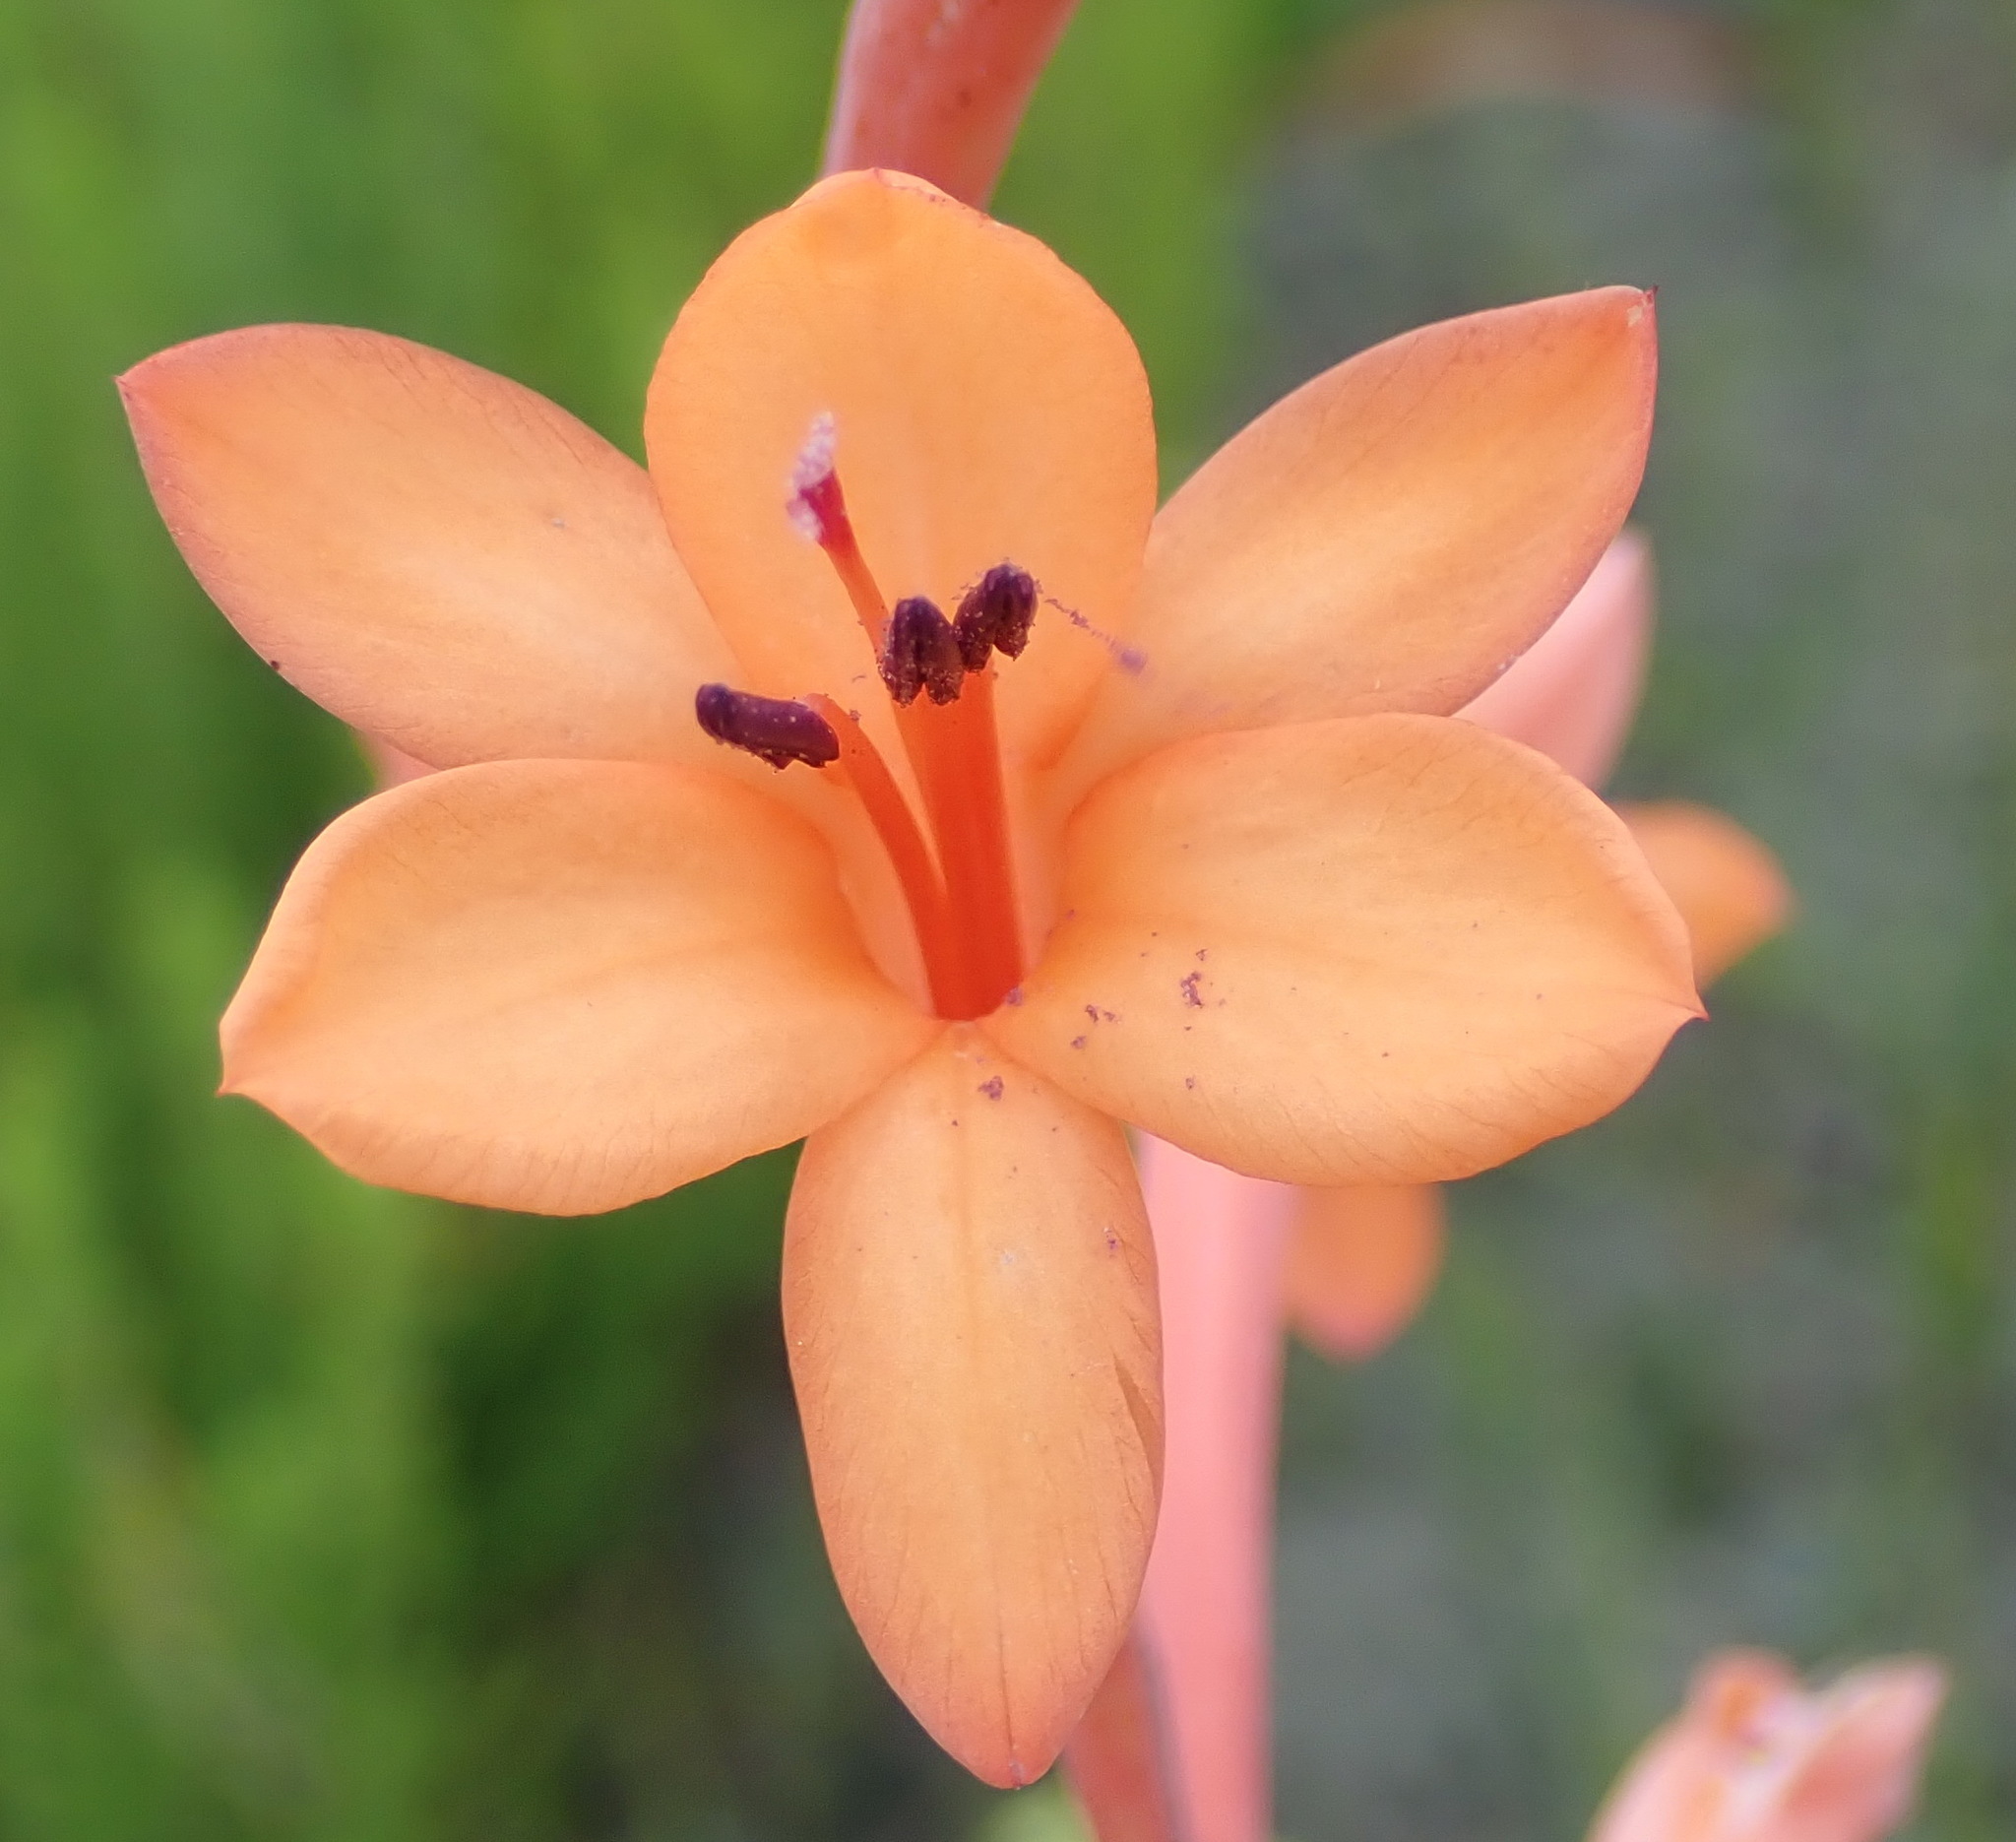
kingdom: Plantae
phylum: Tracheophyta
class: Liliopsida
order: Asparagales
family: Iridaceae
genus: Watsonia
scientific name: Watsonia pillansii
